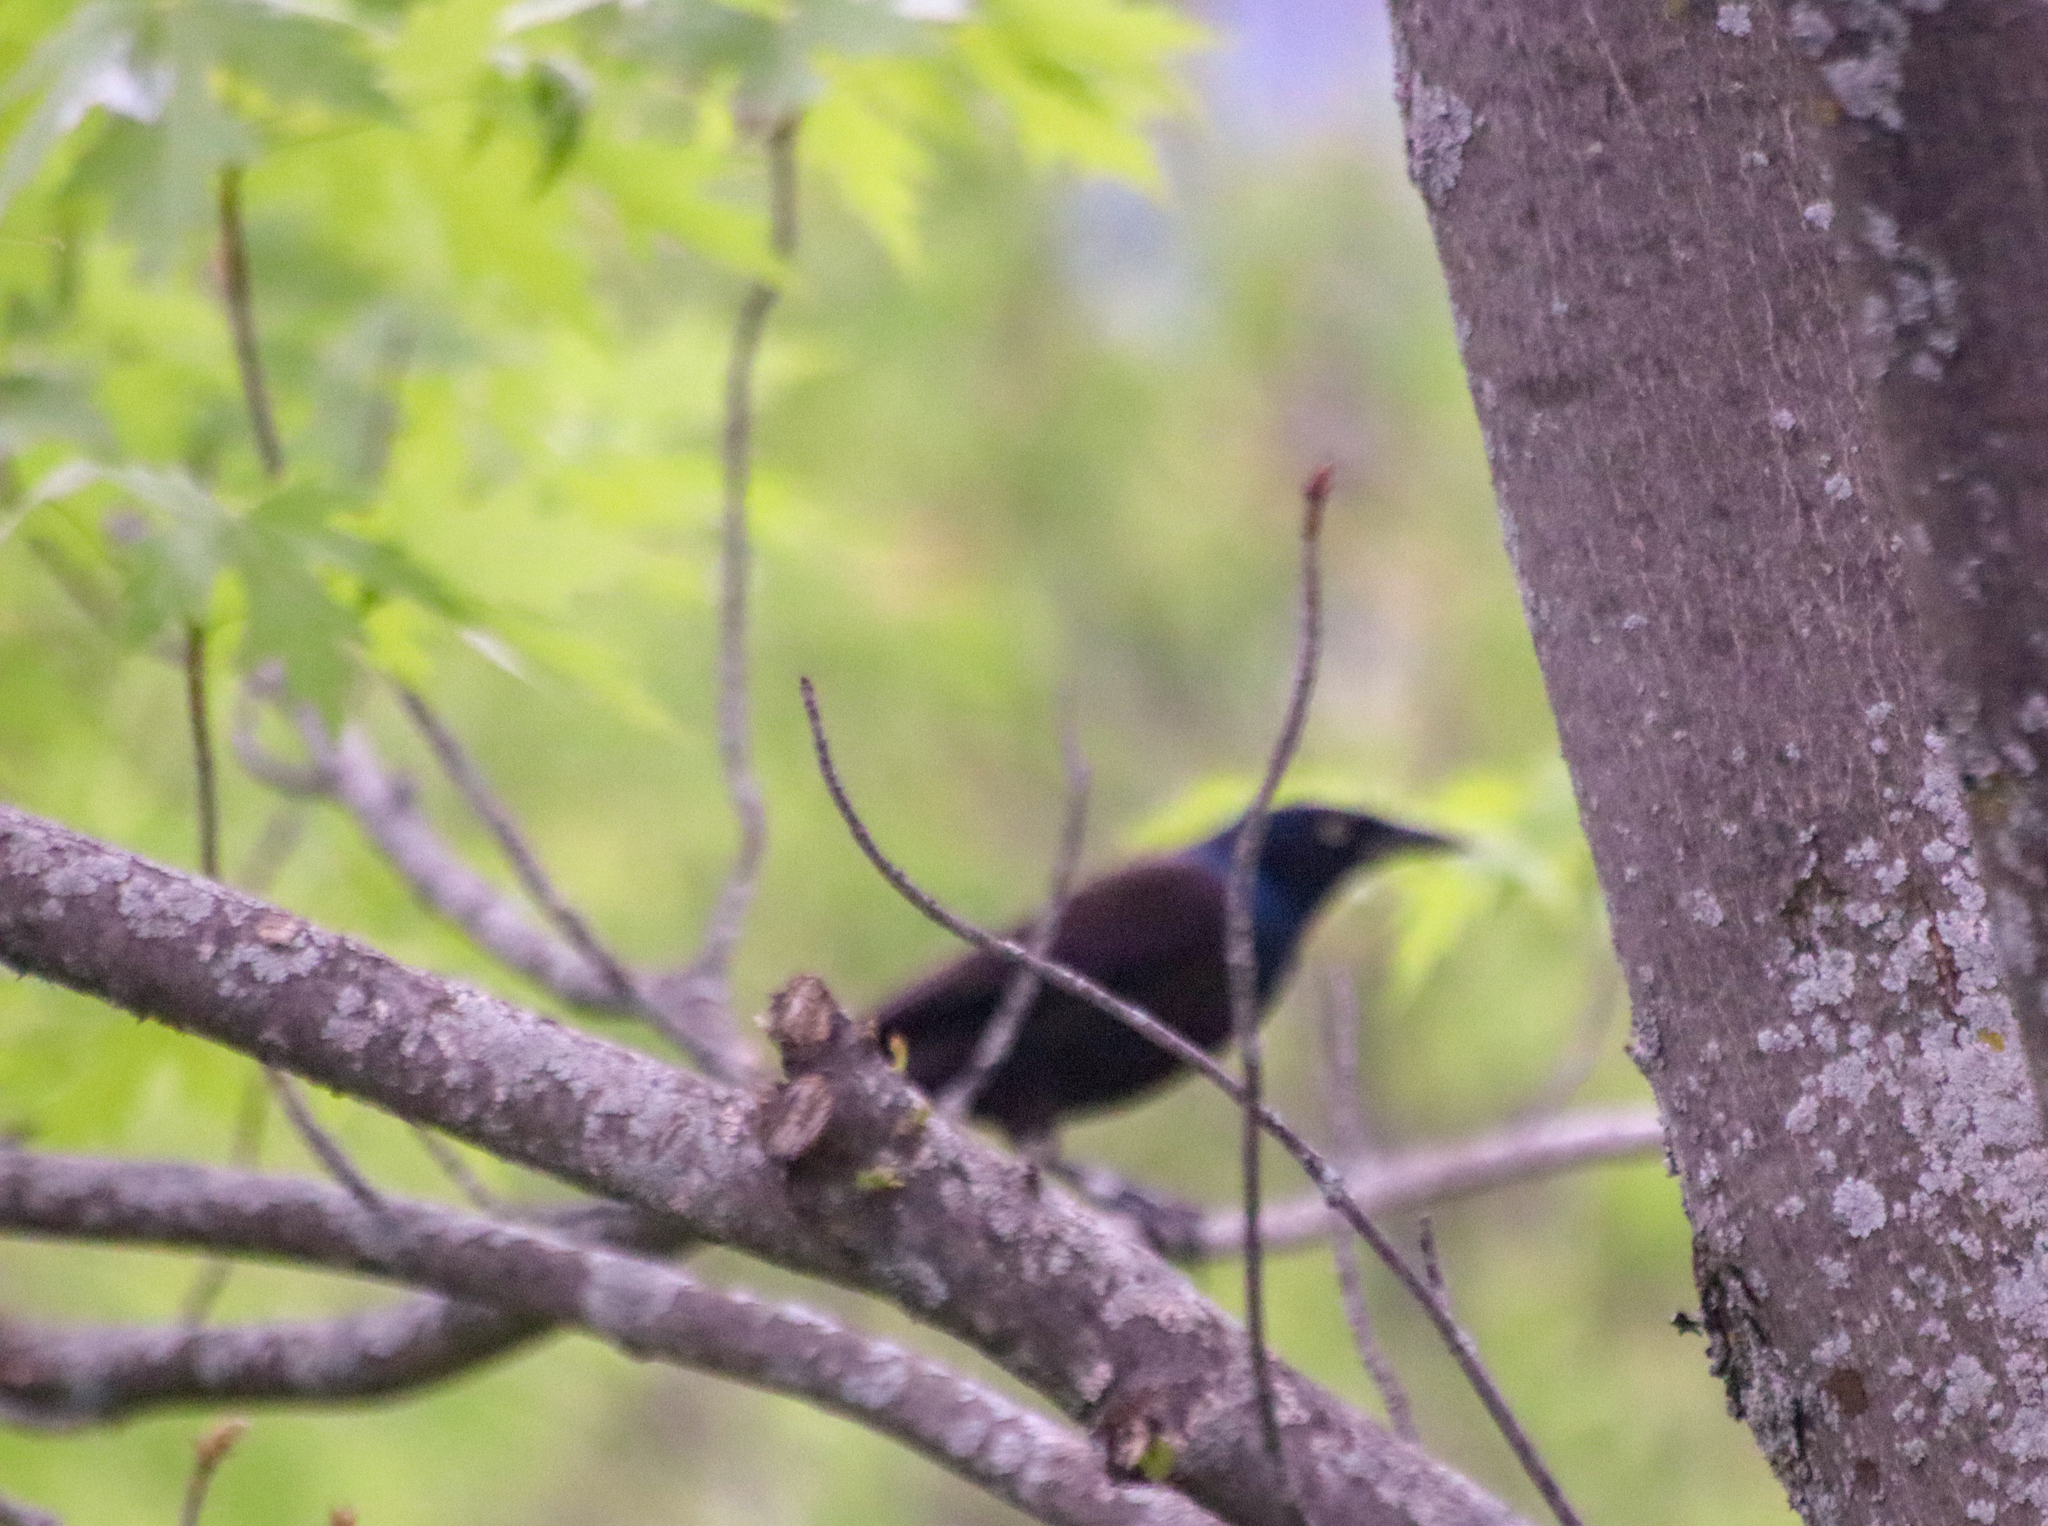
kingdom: Animalia
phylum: Chordata
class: Aves
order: Passeriformes
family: Icteridae
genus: Quiscalus
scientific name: Quiscalus quiscula
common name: Common grackle
